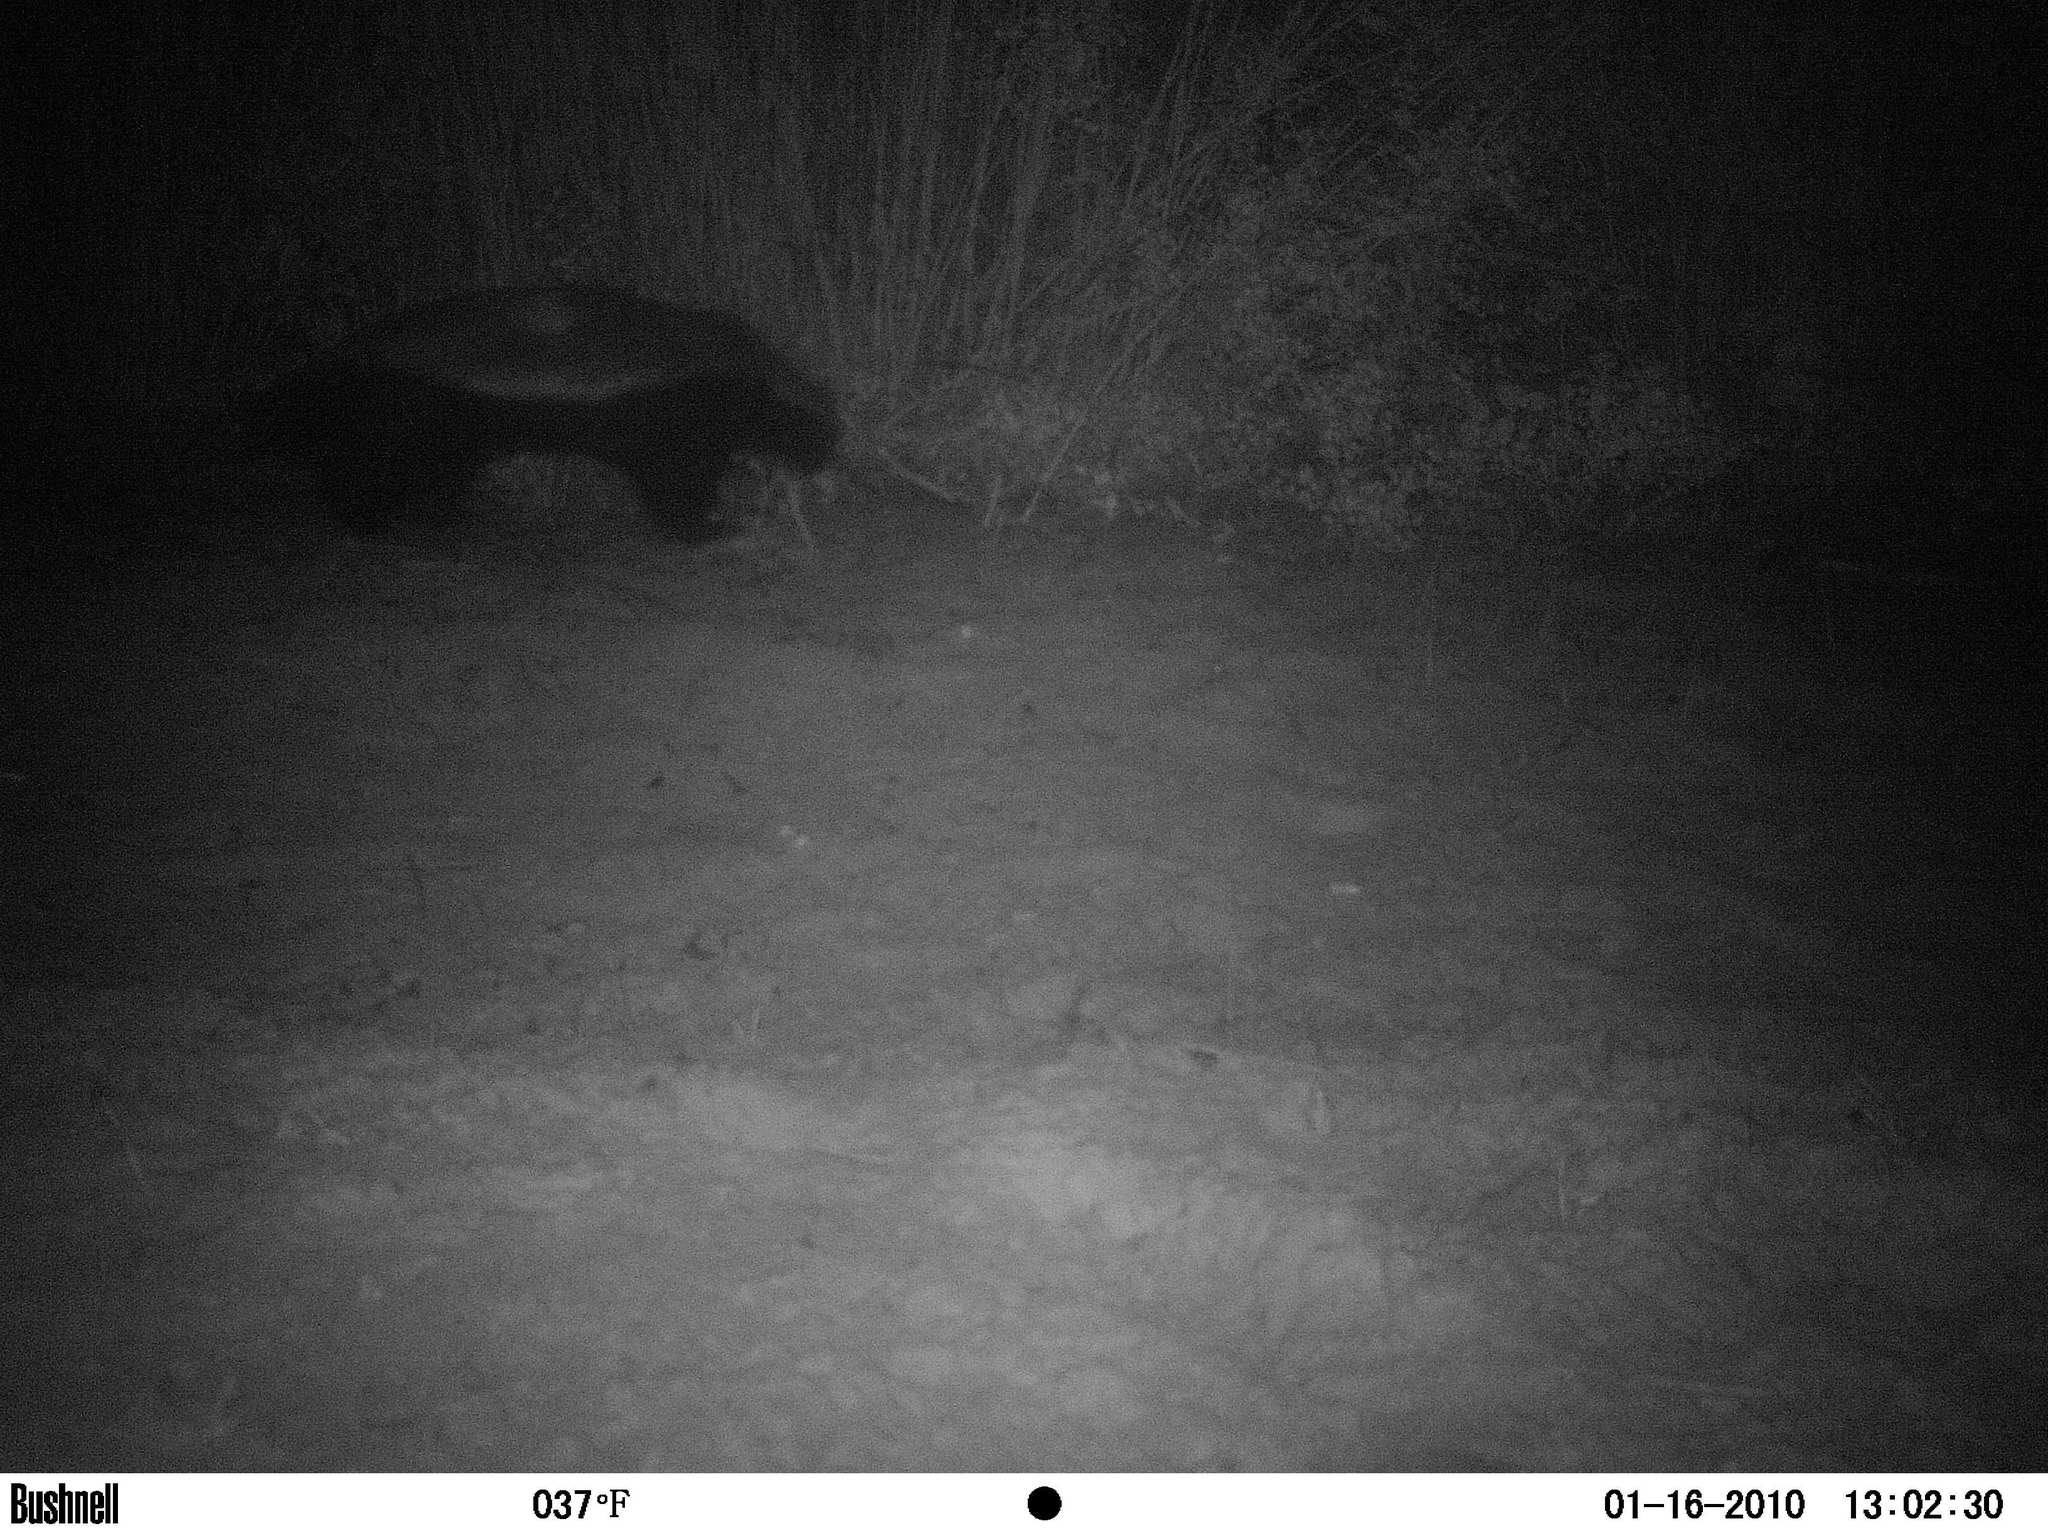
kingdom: Animalia
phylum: Chordata
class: Mammalia
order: Carnivora
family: Mustelidae
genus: Mellivora
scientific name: Mellivora capensis
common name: Honey badger
